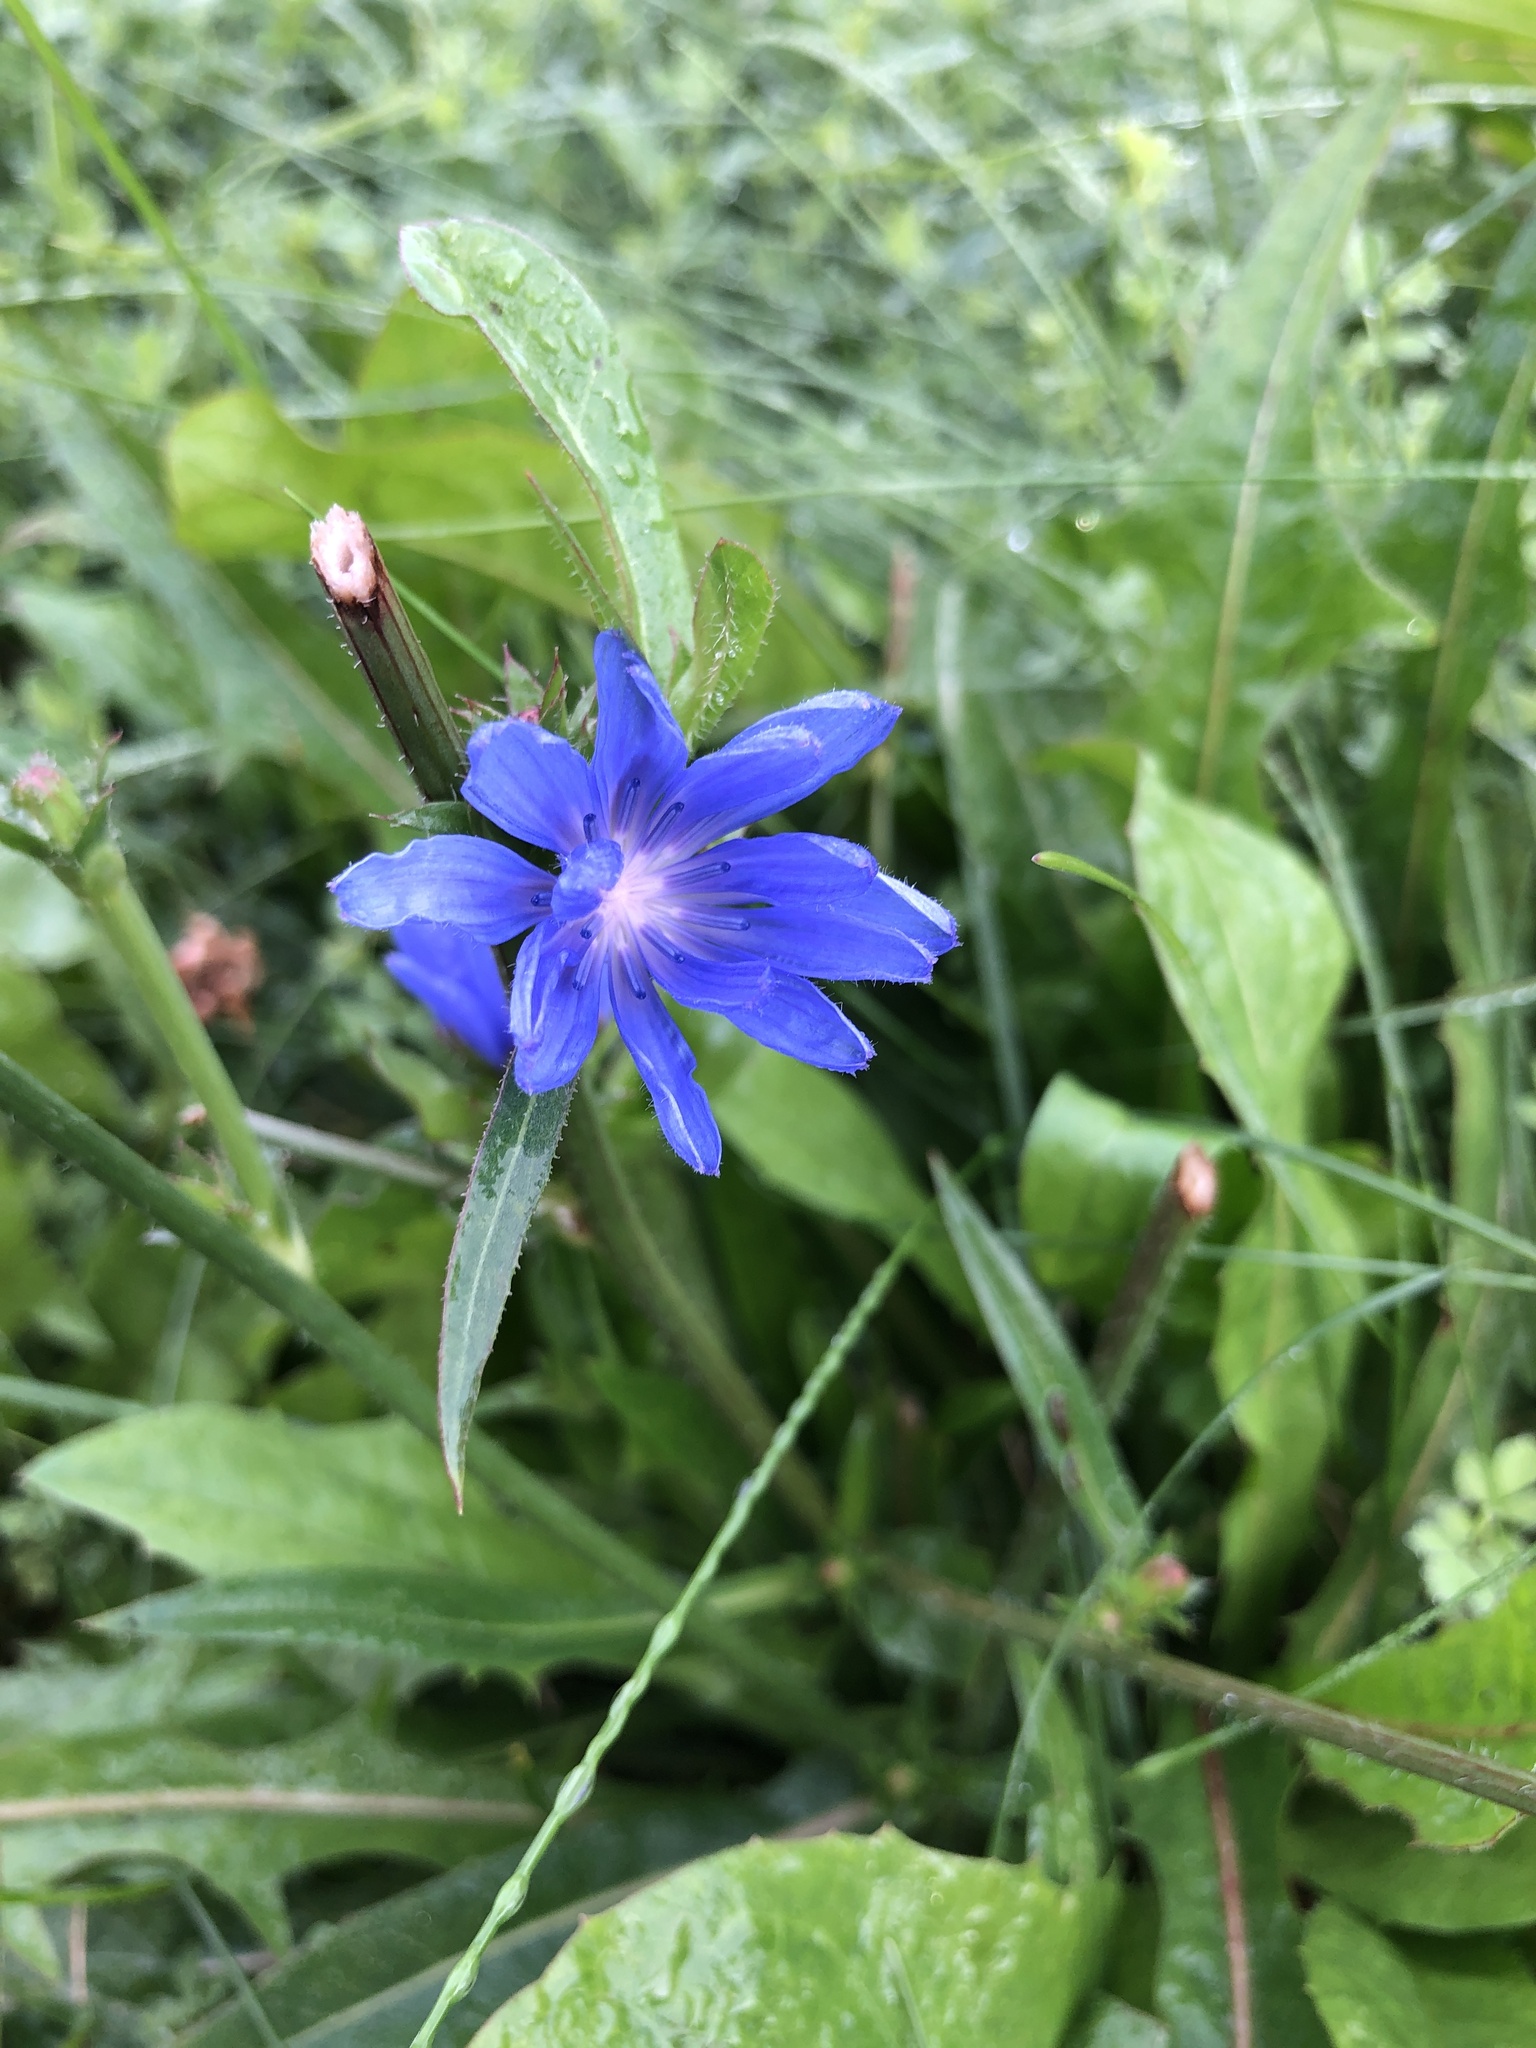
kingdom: Plantae
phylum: Tracheophyta
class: Magnoliopsida
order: Asterales
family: Asteraceae
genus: Cichorium
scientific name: Cichorium intybus
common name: Chicory
